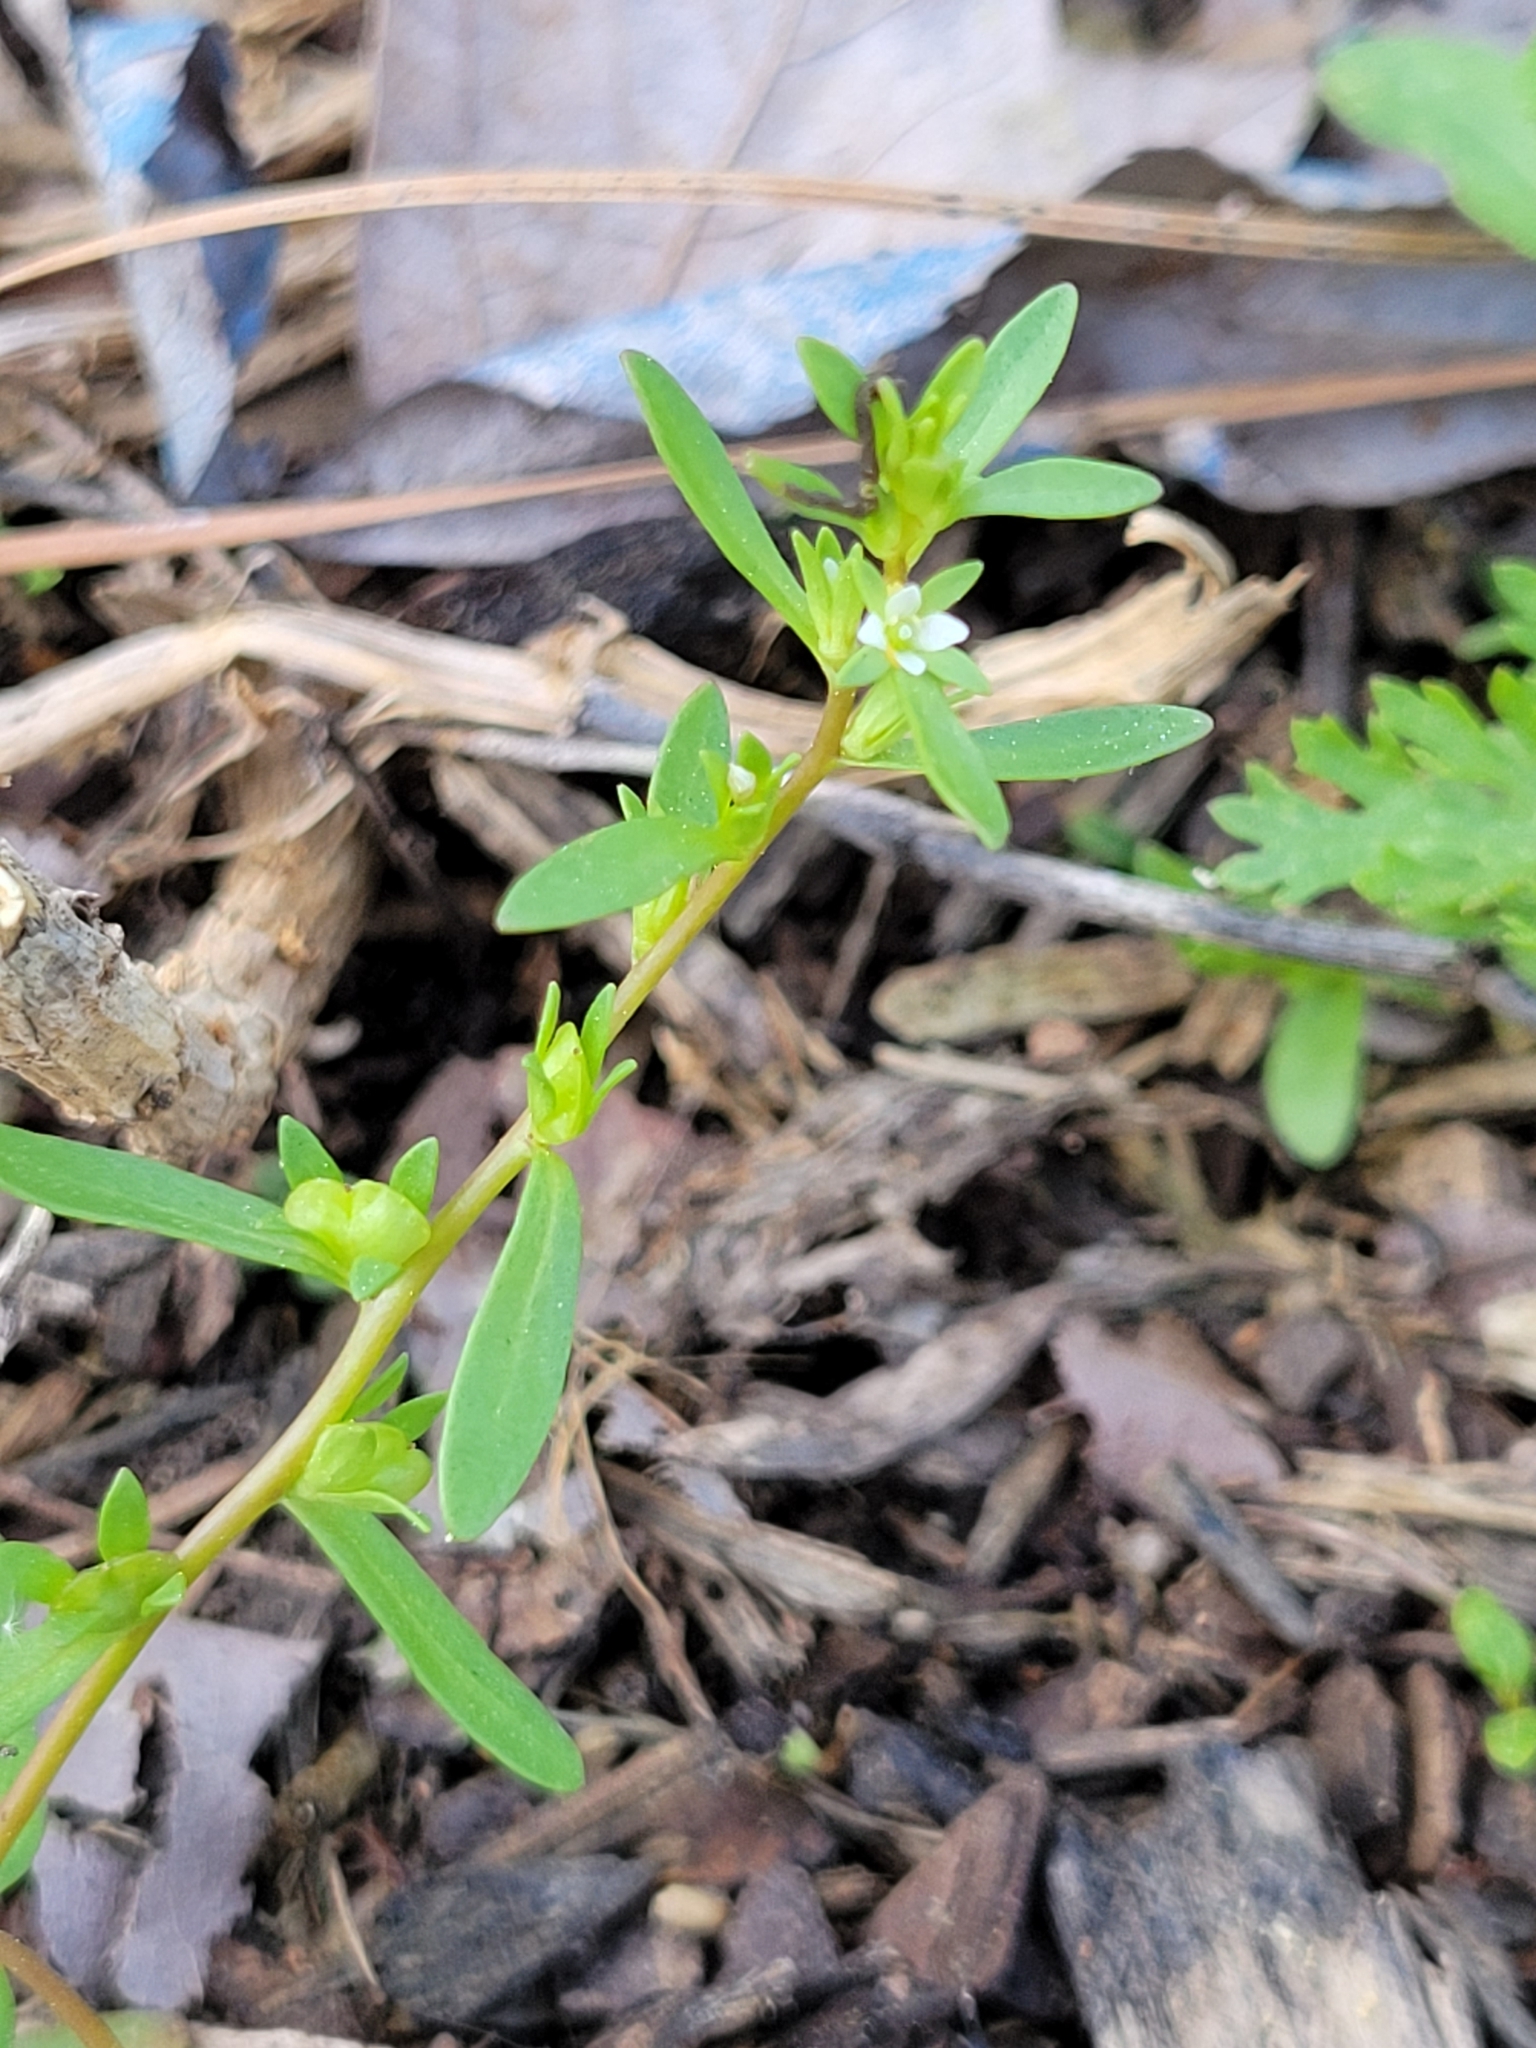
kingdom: Plantae
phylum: Tracheophyta
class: Magnoliopsida
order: Lamiales
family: Plantaginaceae
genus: Veronica
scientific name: Veronica peregrina
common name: Neckweed
